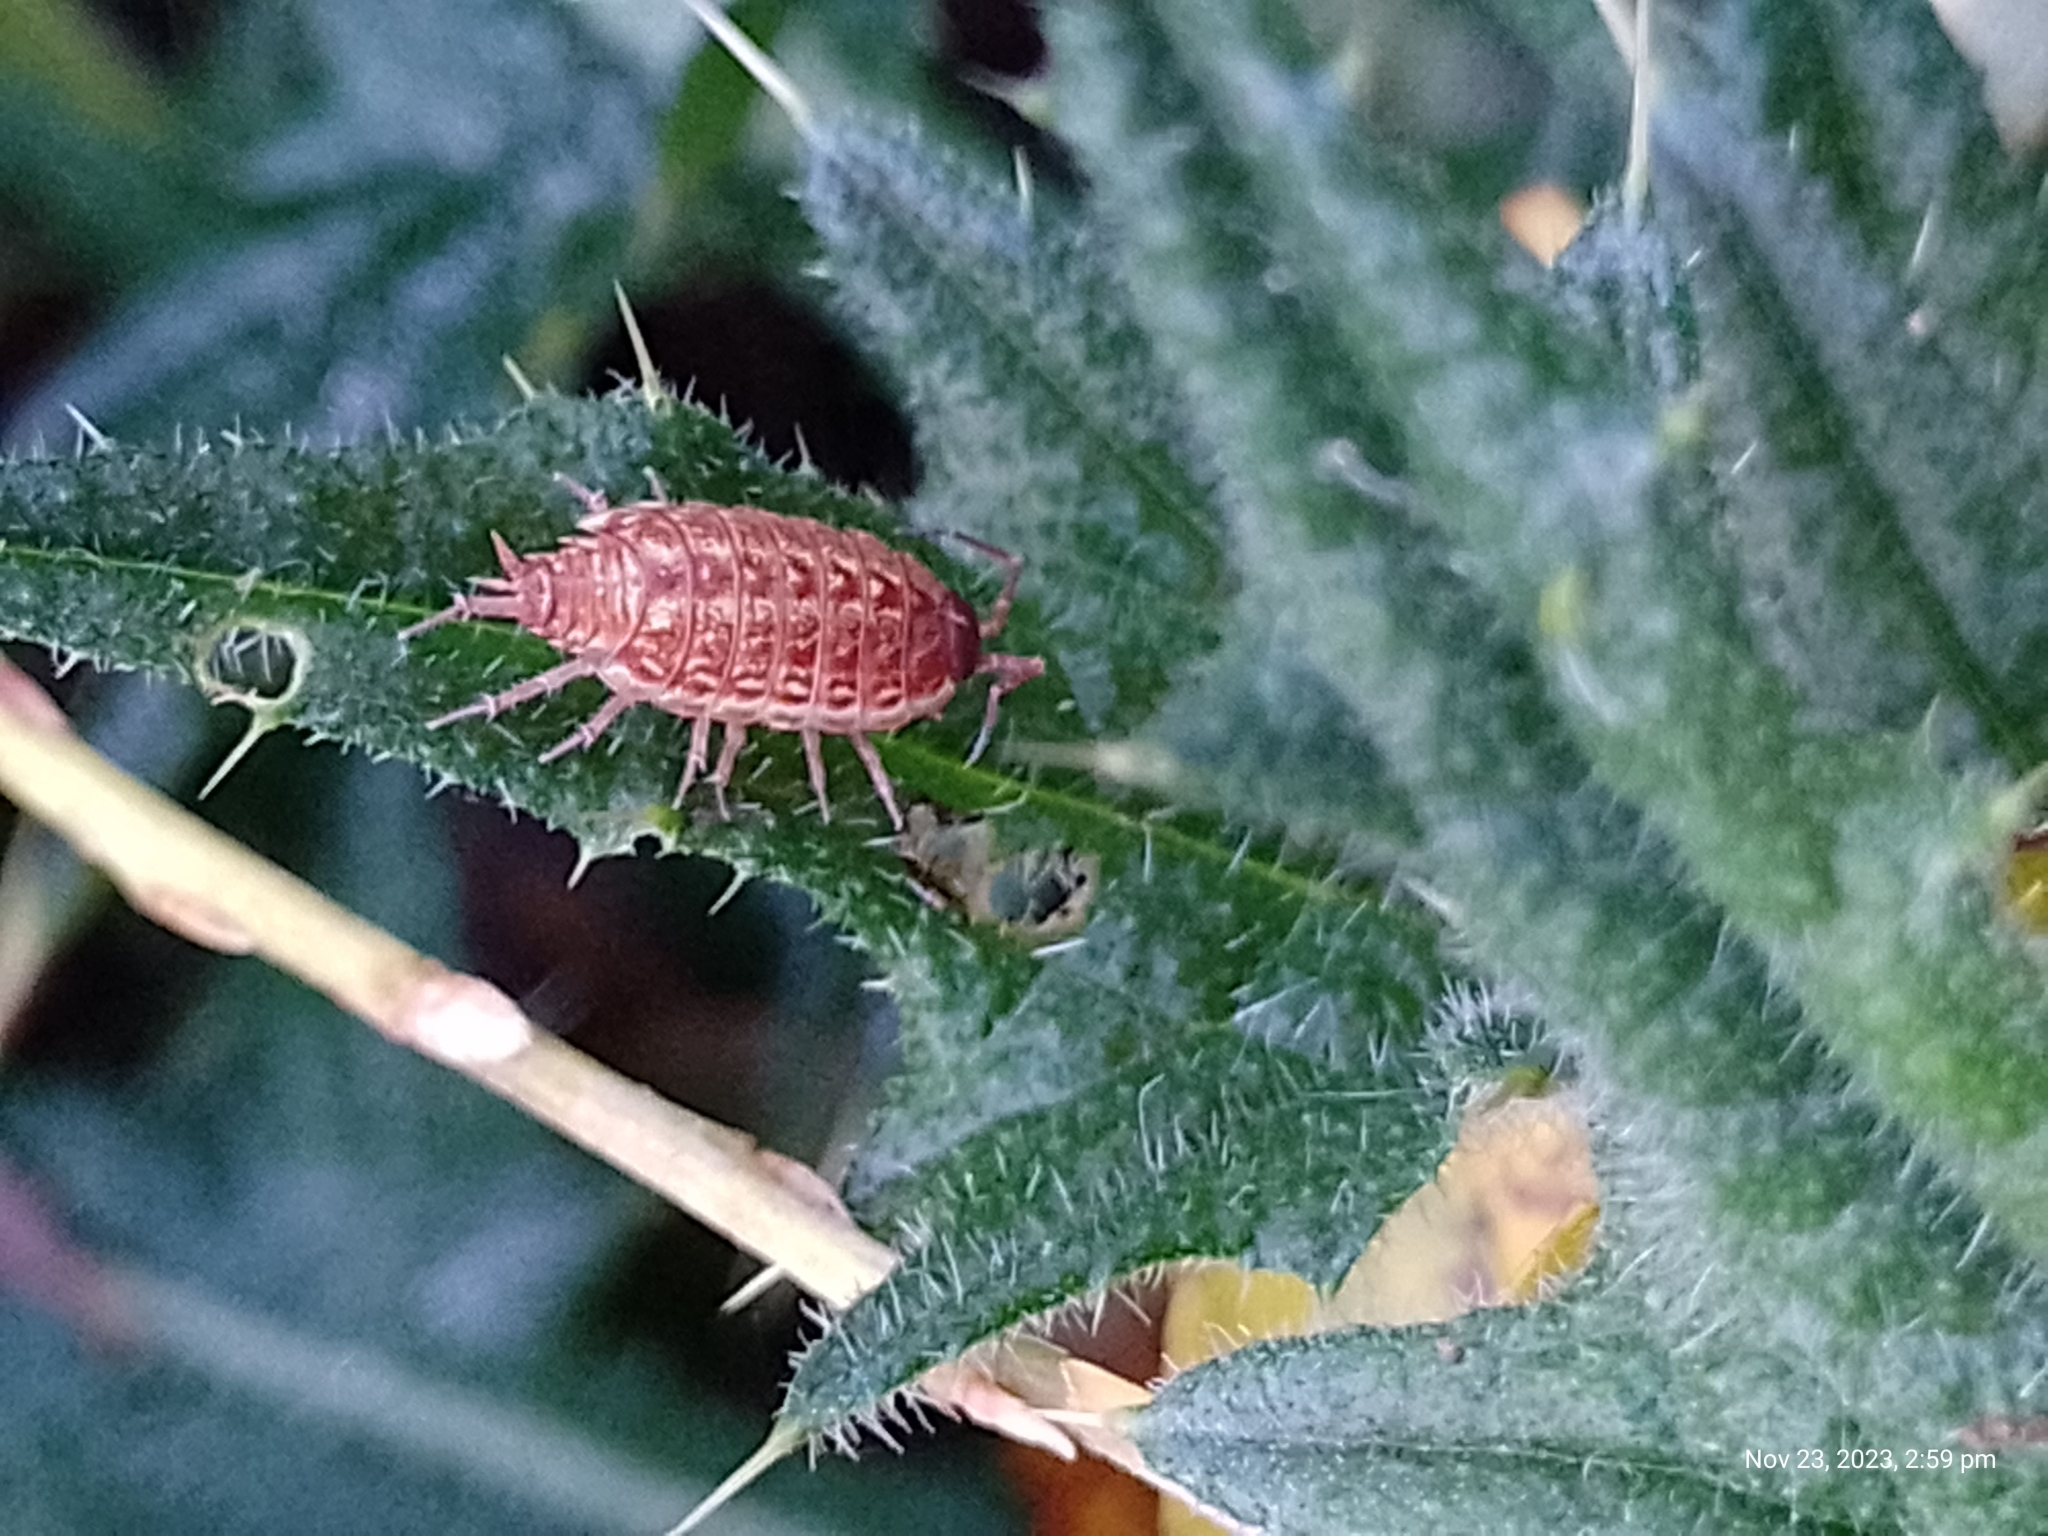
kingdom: Animalia
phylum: Arthropoda
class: Malacostraca
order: Isopoda
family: Philosciidae
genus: Philoscia
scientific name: Philoscia muscorum
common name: Common striped woodlouse
